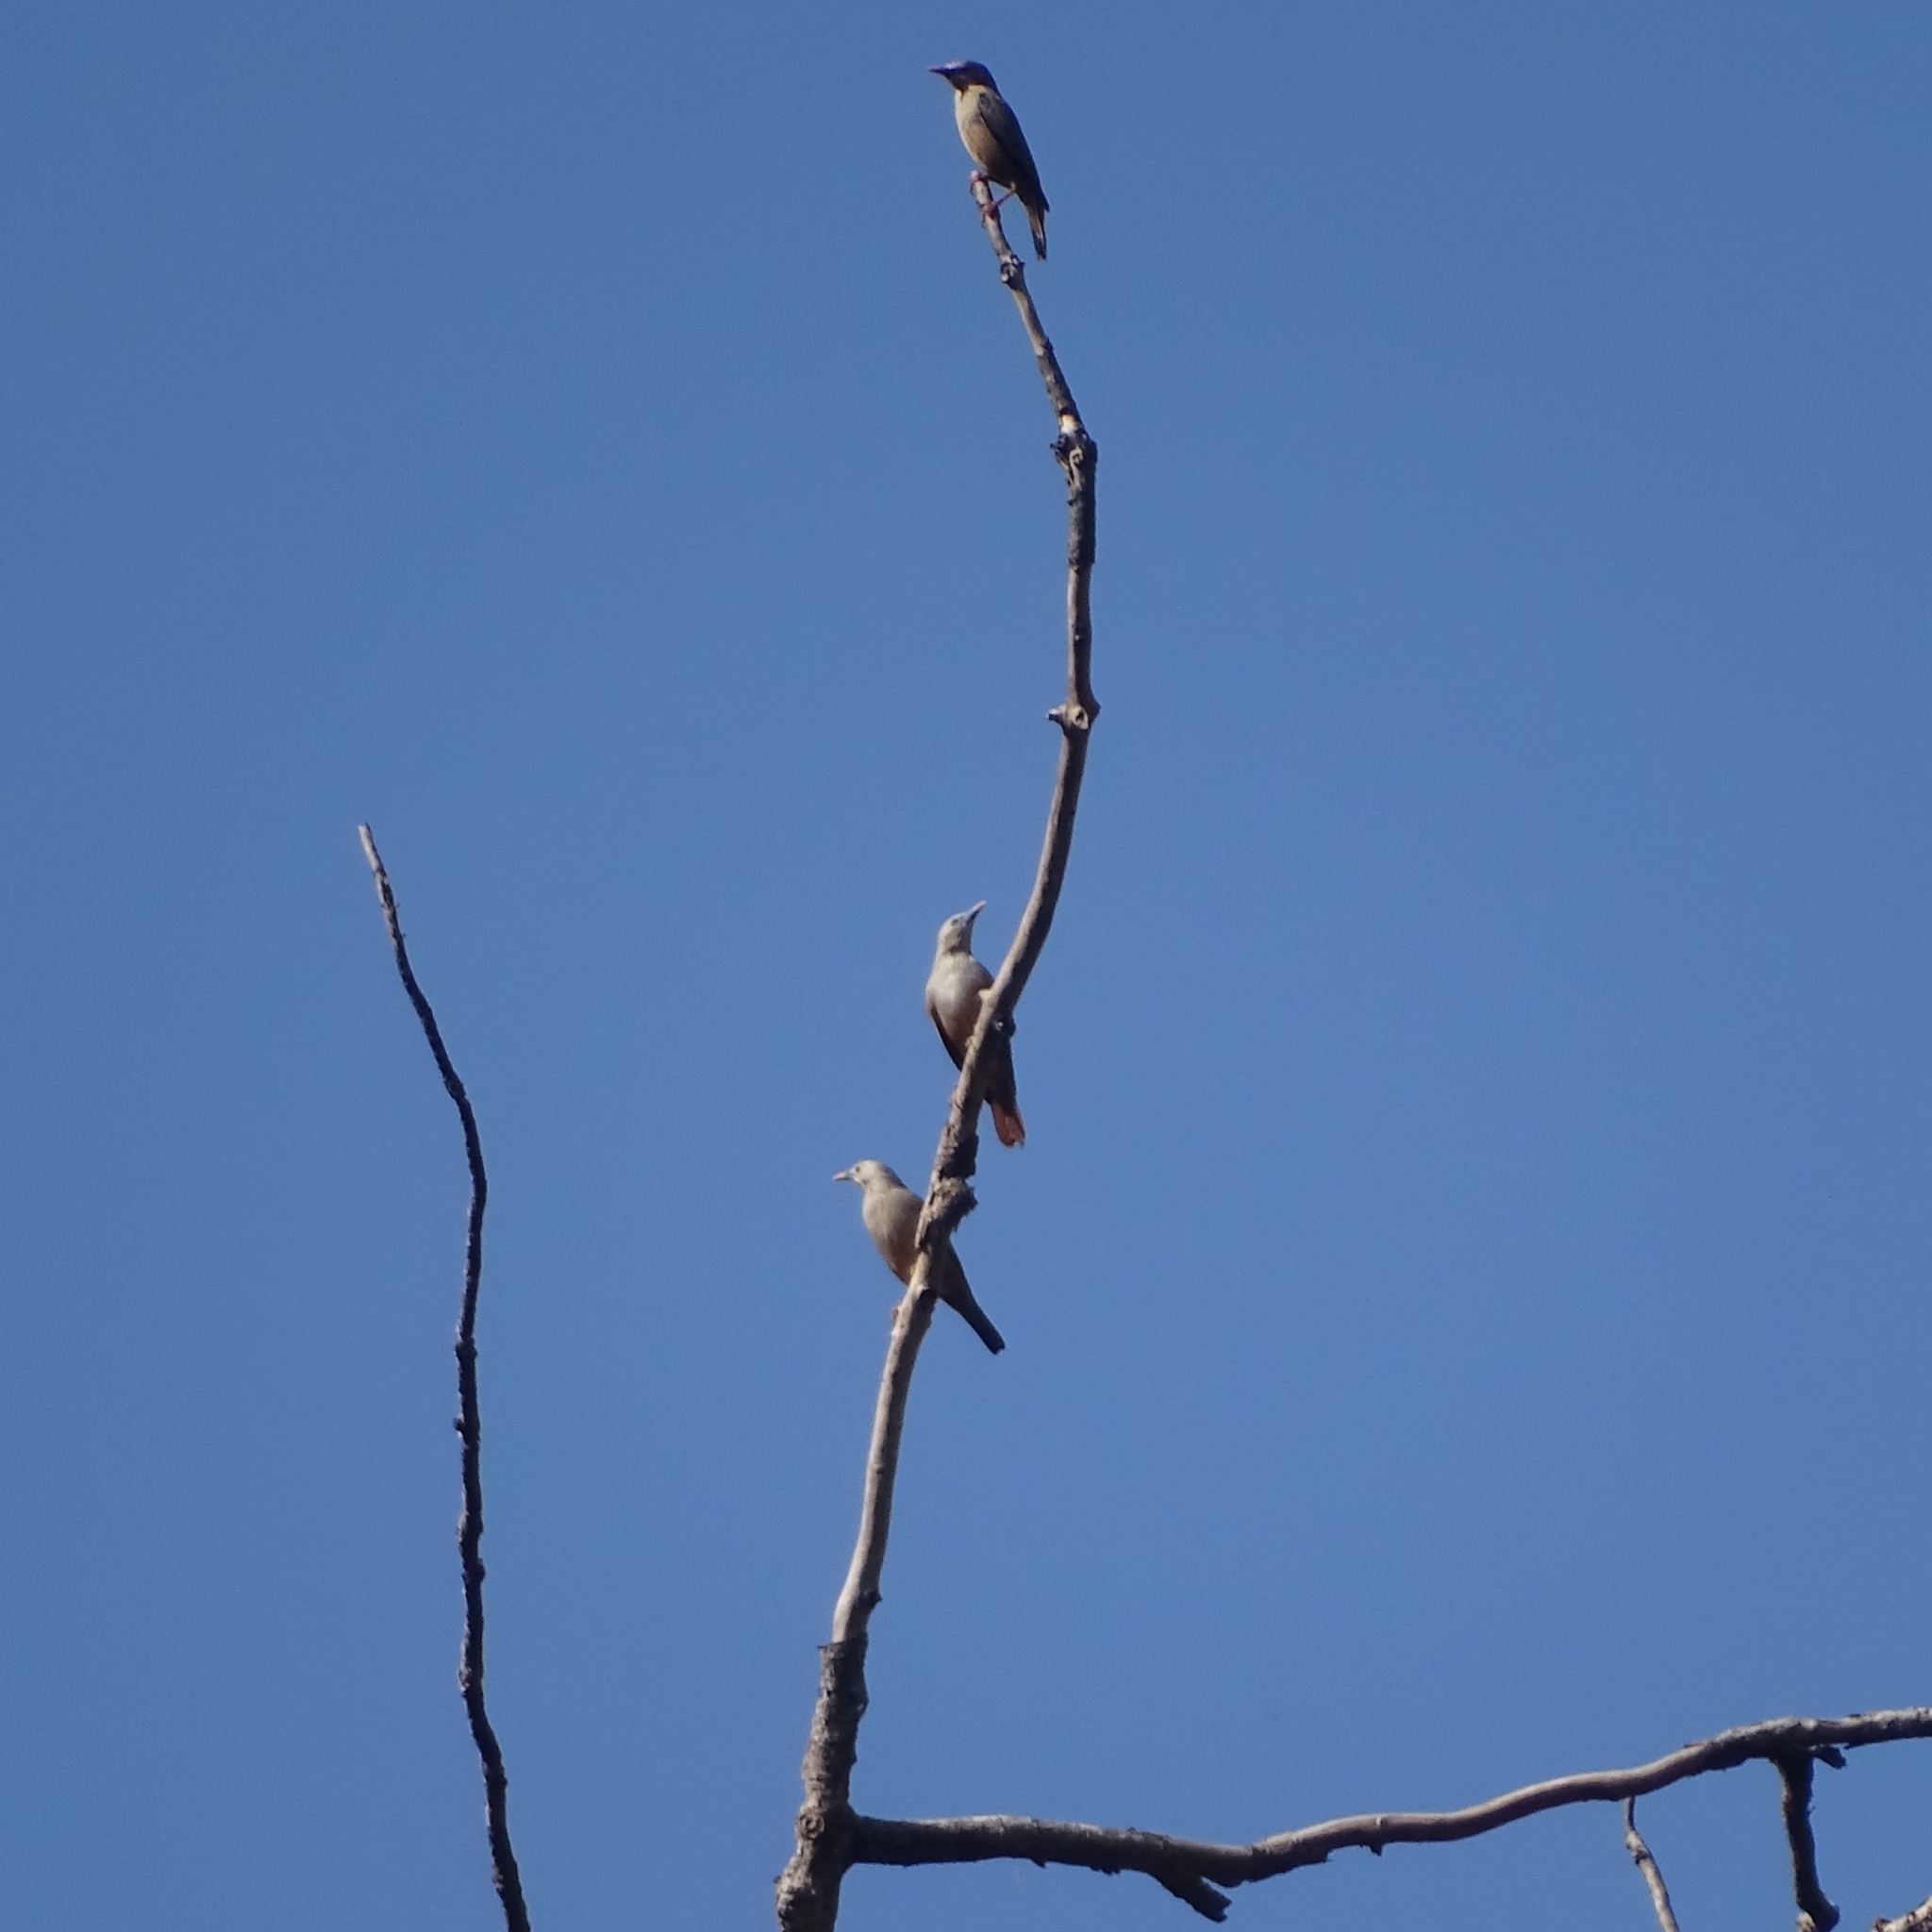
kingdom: Animalia
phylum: Chordata
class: Aves
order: Passeriformes
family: Sturnidae
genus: Sturnia
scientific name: Sturnia malabarica
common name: Chestnut-tailed starling
